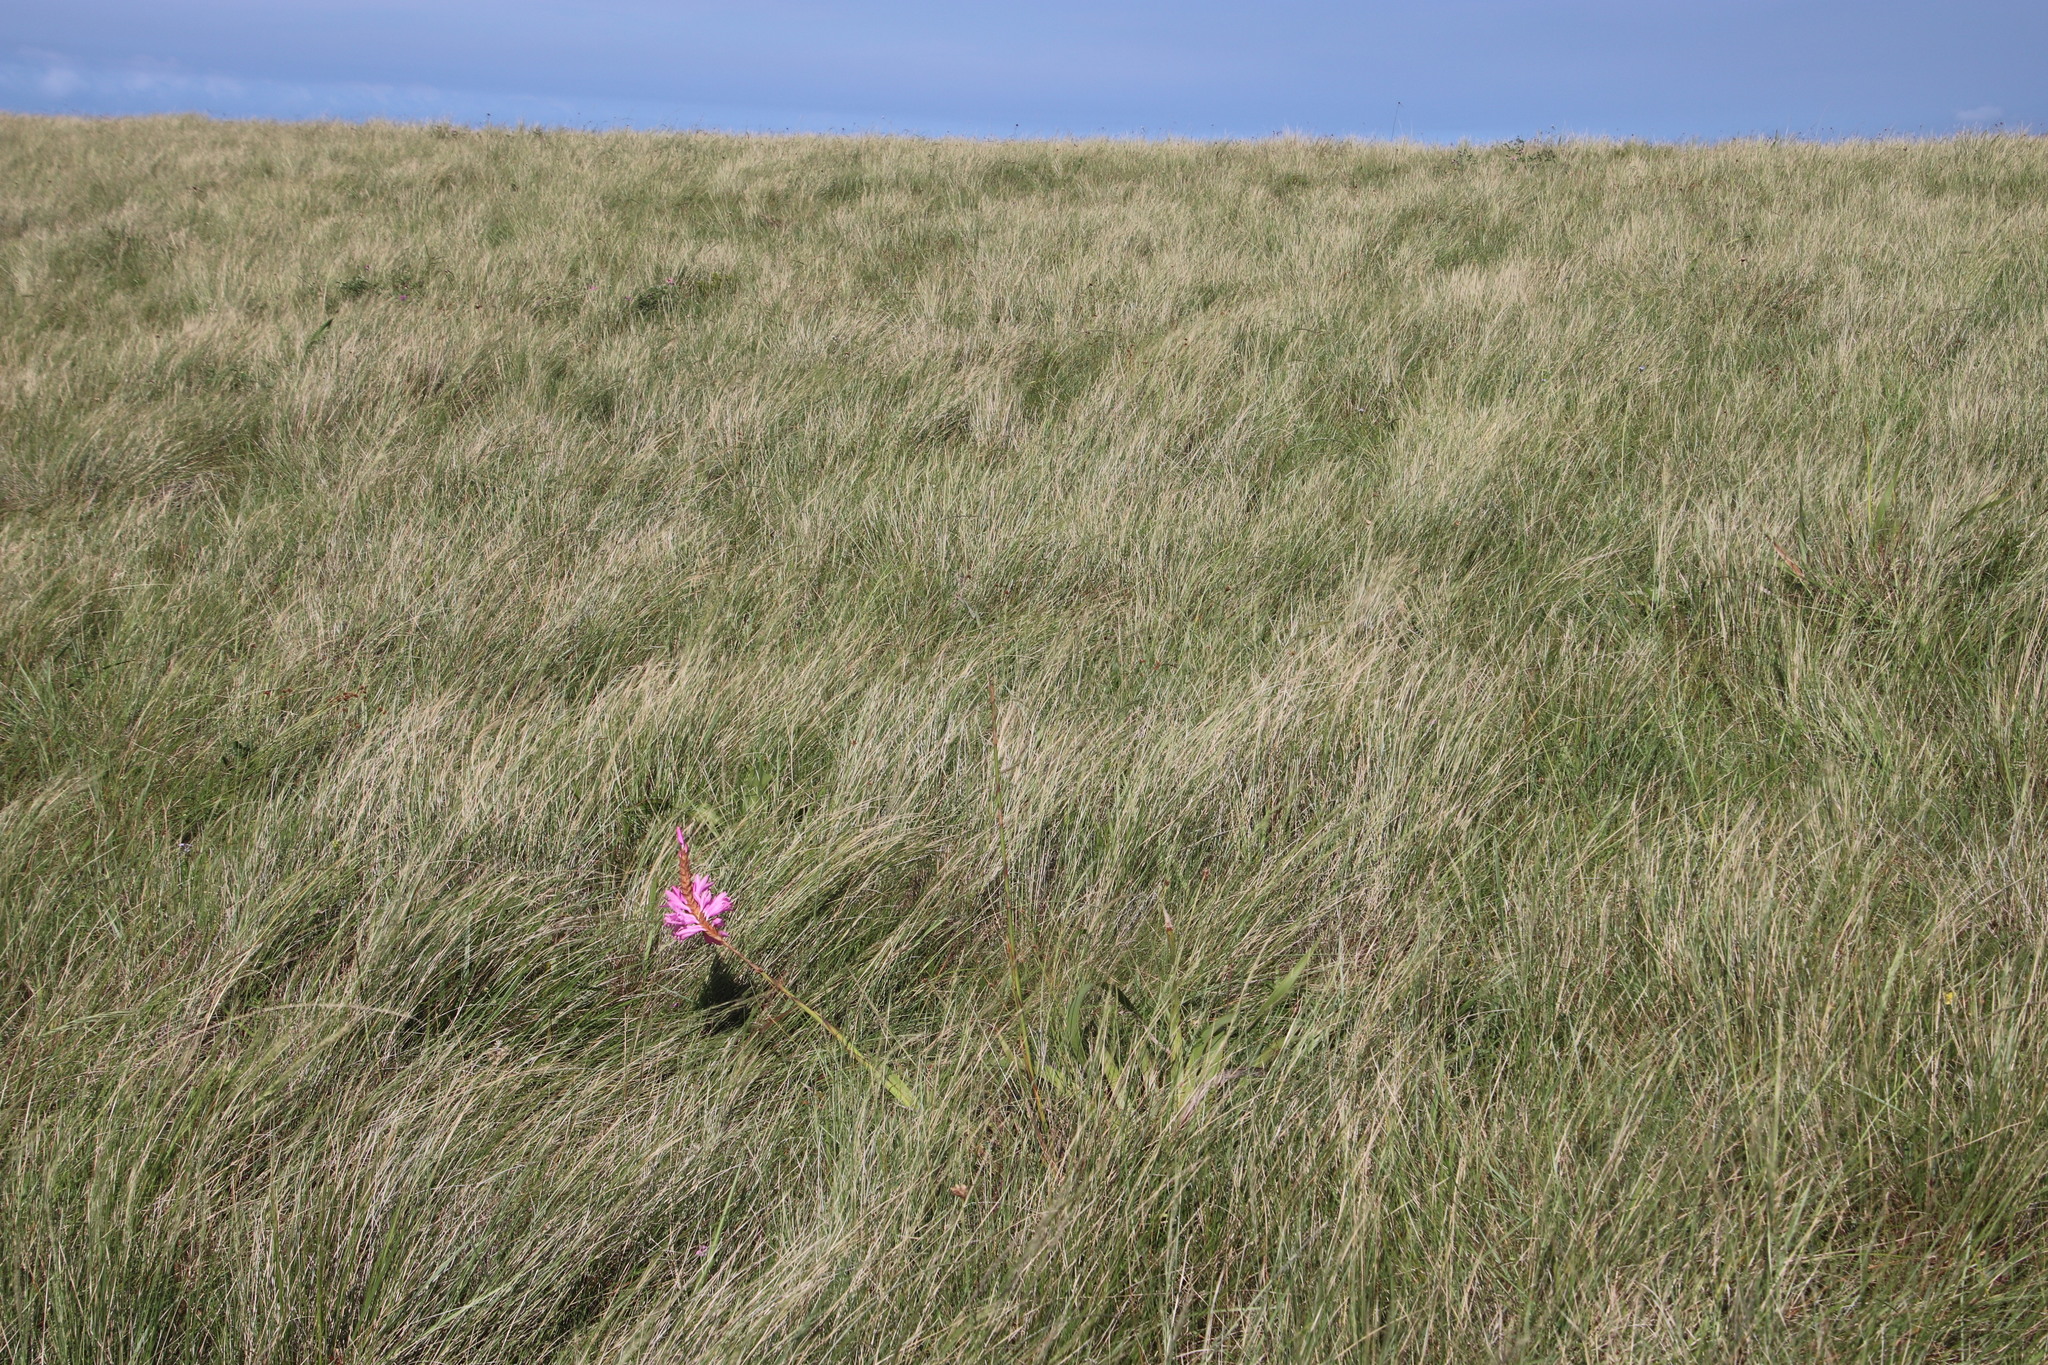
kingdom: Plantae
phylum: Tracheophyta
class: Liliopsida
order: Asparagales
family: Iridaceae
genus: Watsonia
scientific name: Watsonia densiflora
